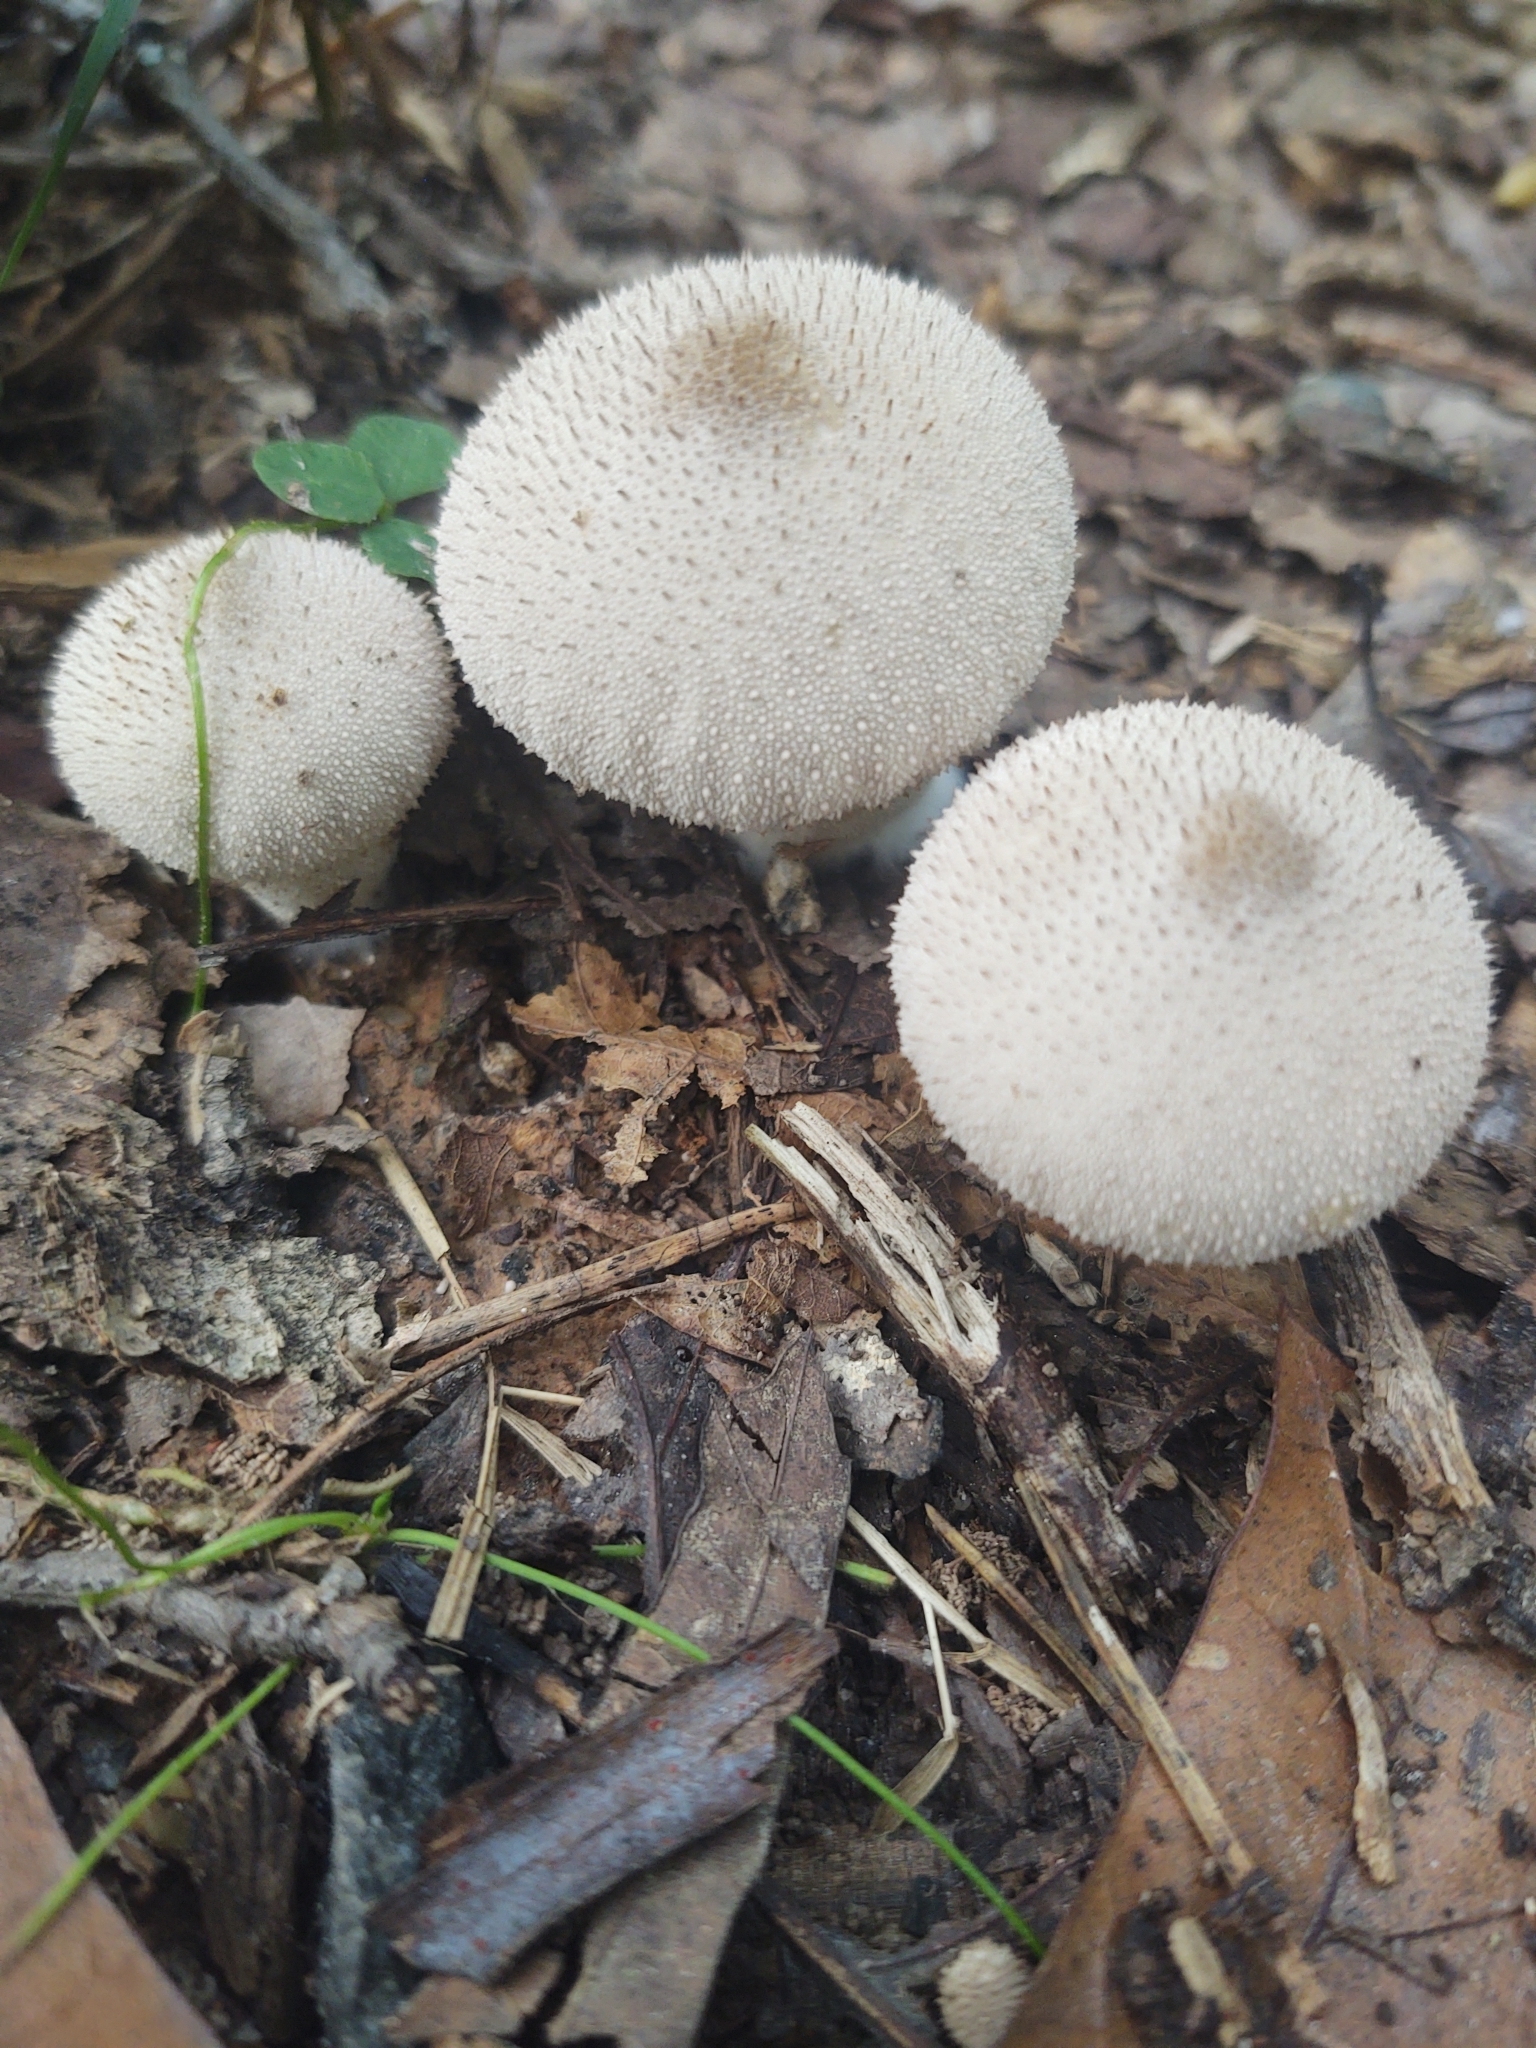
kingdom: Fungi
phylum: Basidiomycota
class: Agaricomycetes
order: Agaricales
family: Lycoperdaceae
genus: Lycoperdon
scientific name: Lycoperdon perlatum
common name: Common puffball
